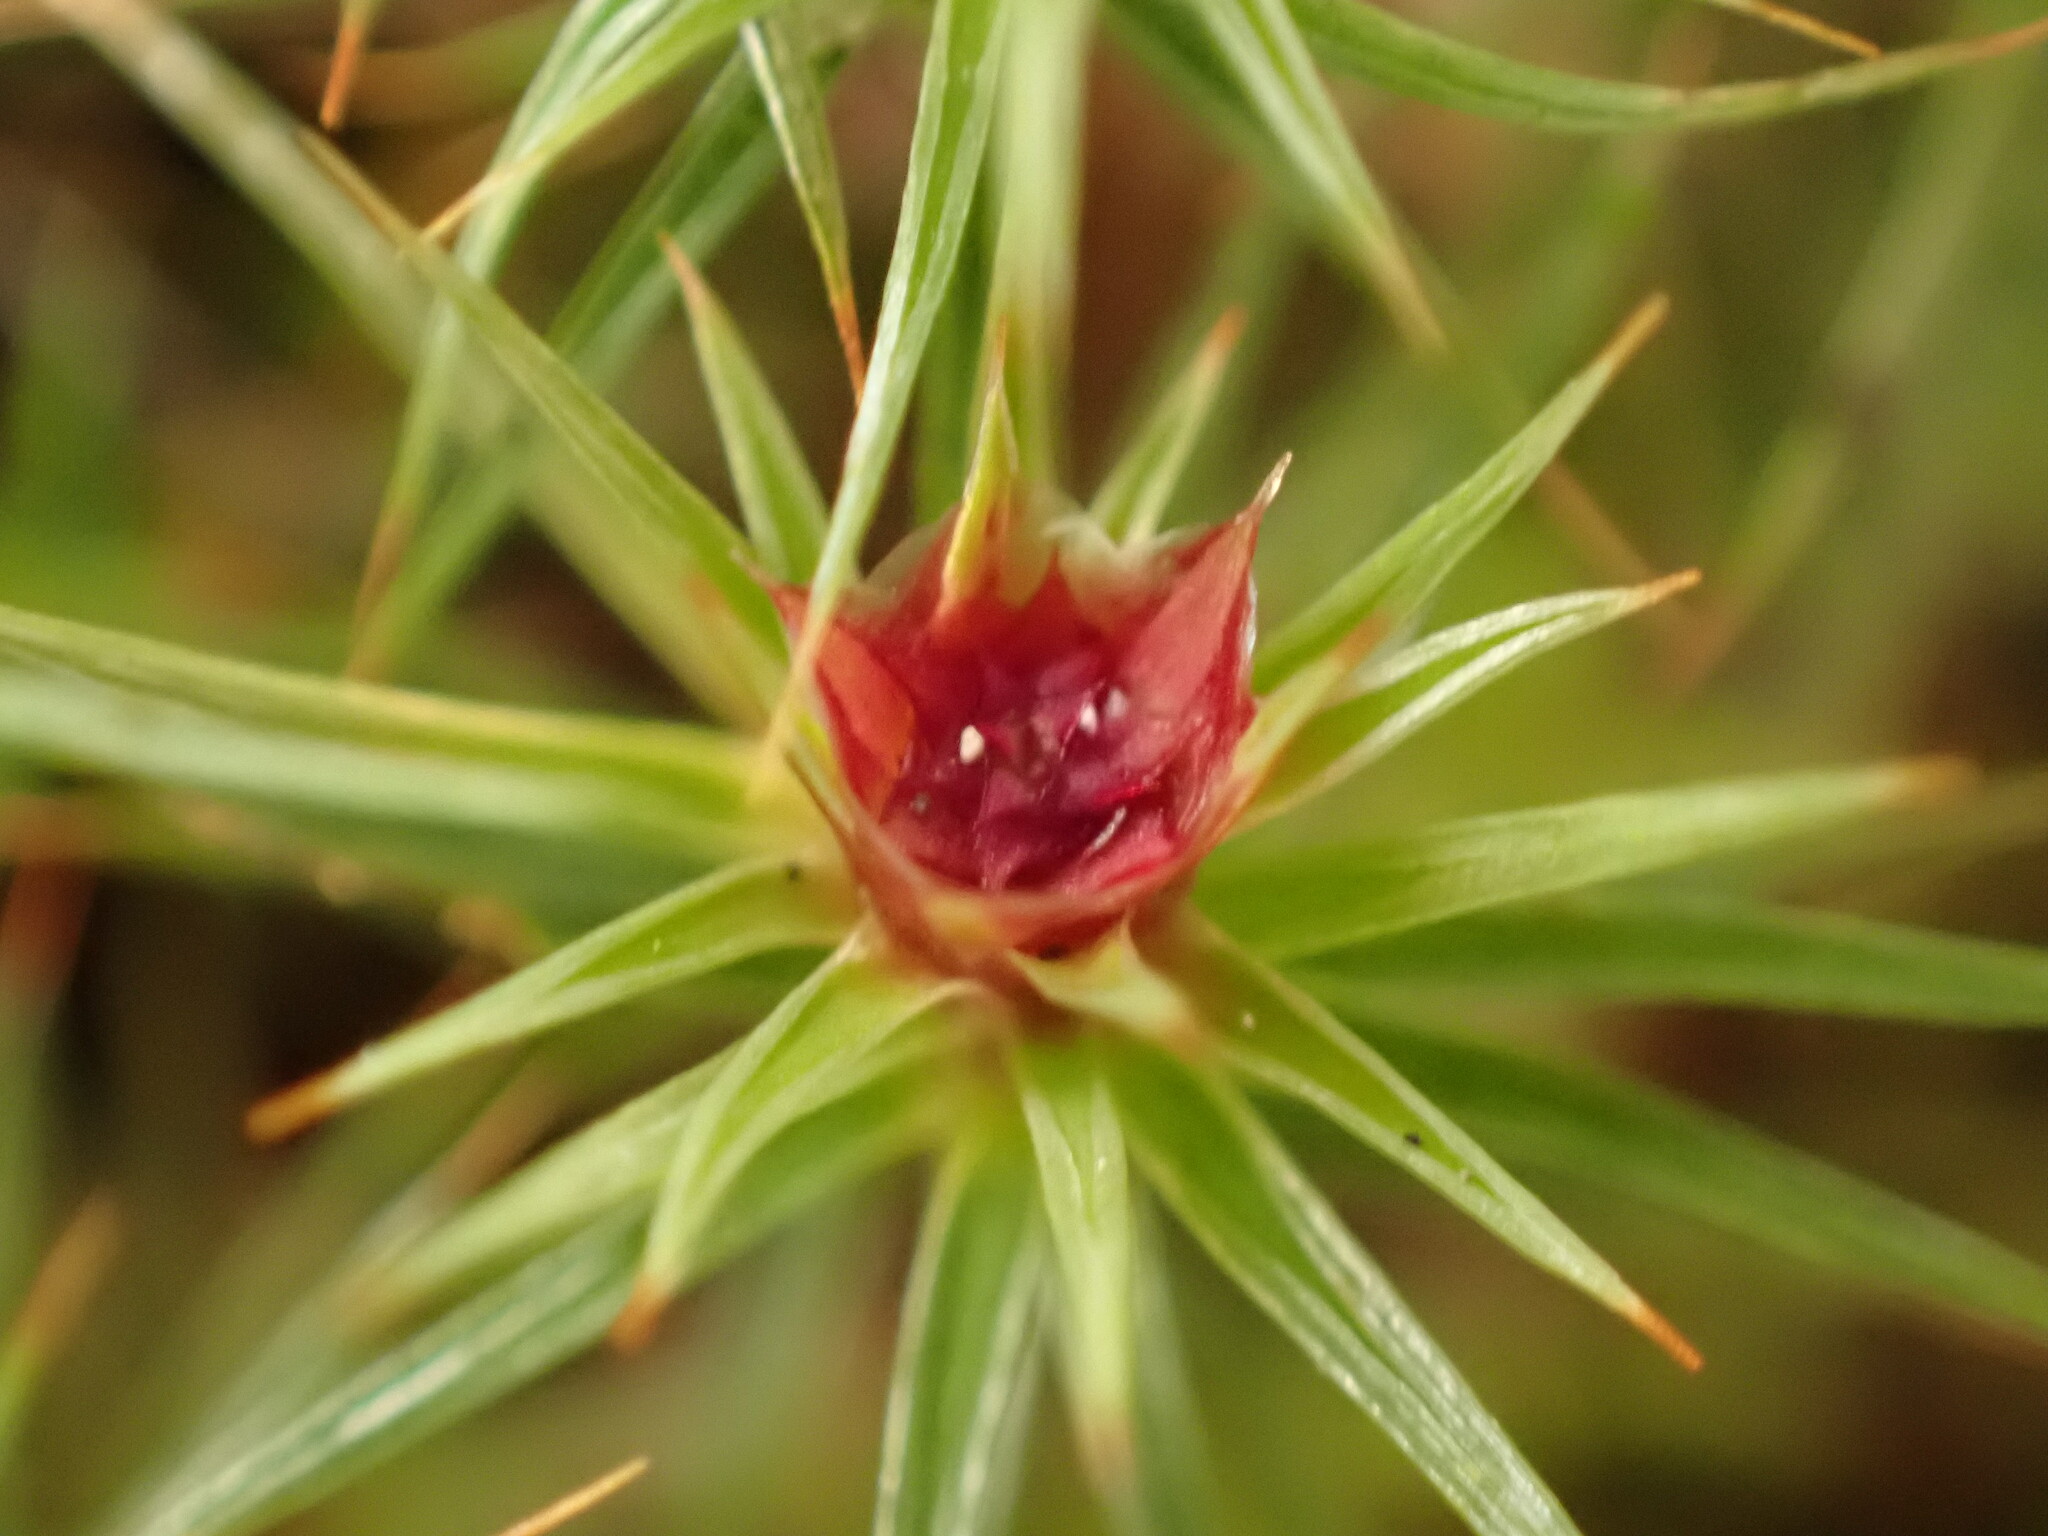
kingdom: Plantae
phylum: Bryophyta
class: Polytrichopsida
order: Polytrichales
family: Polytrichaceae
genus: Polytrichum
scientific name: Polytrichum juniperinum
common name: Juniper haircap moss
